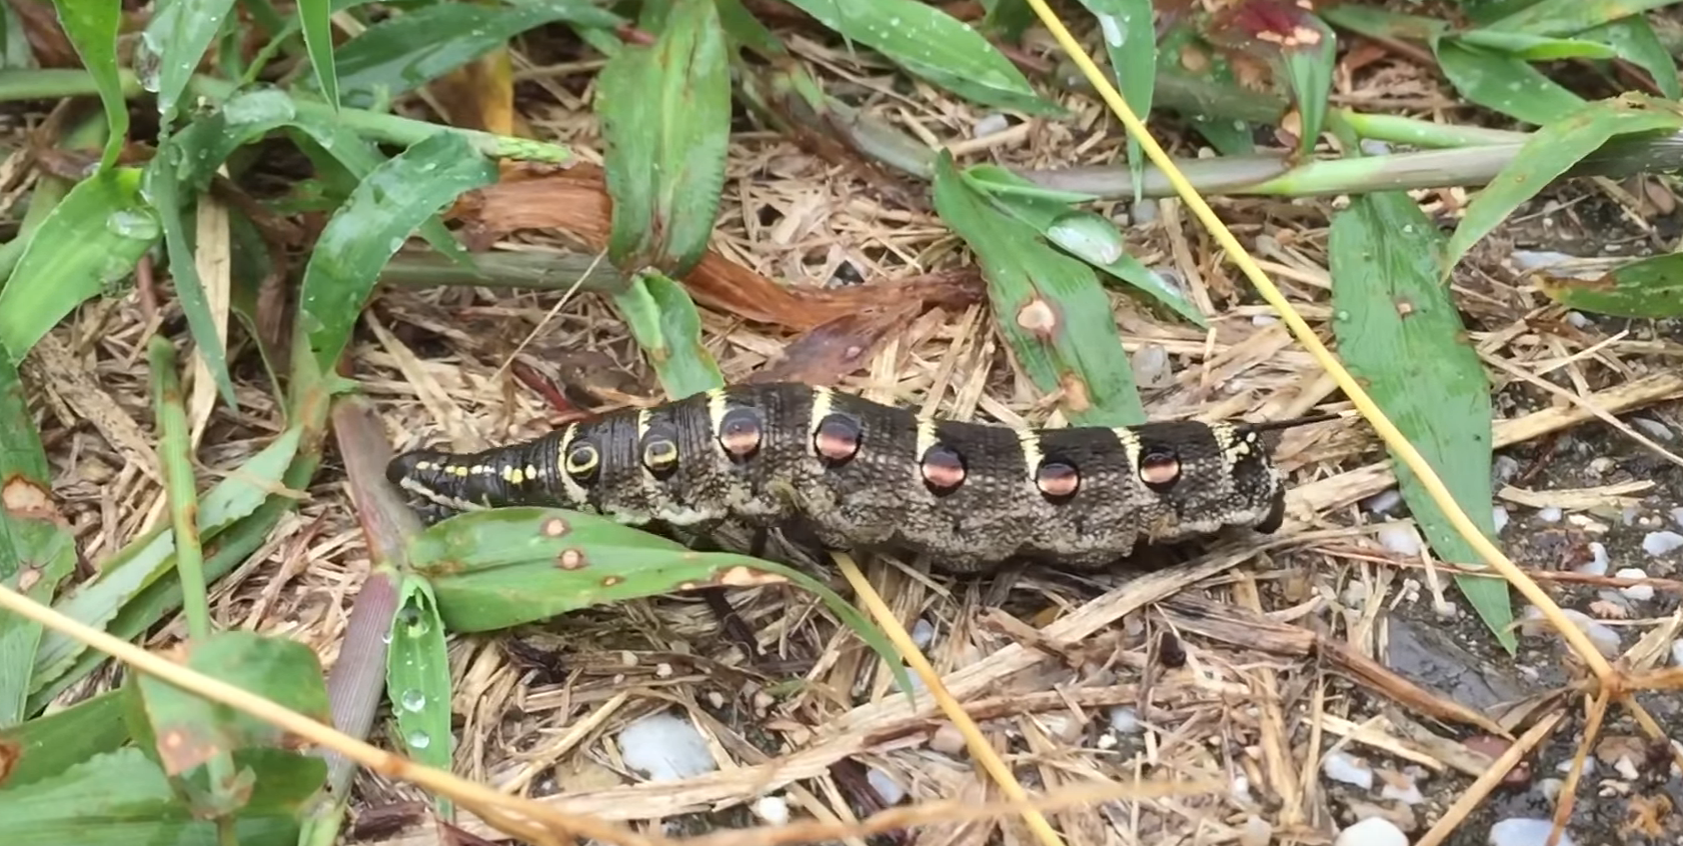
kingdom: Animalia
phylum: Arthropoda
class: Insecta
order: Lepidoptera
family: Sphingidae
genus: Theretra
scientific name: Theretra oldenlandiae
